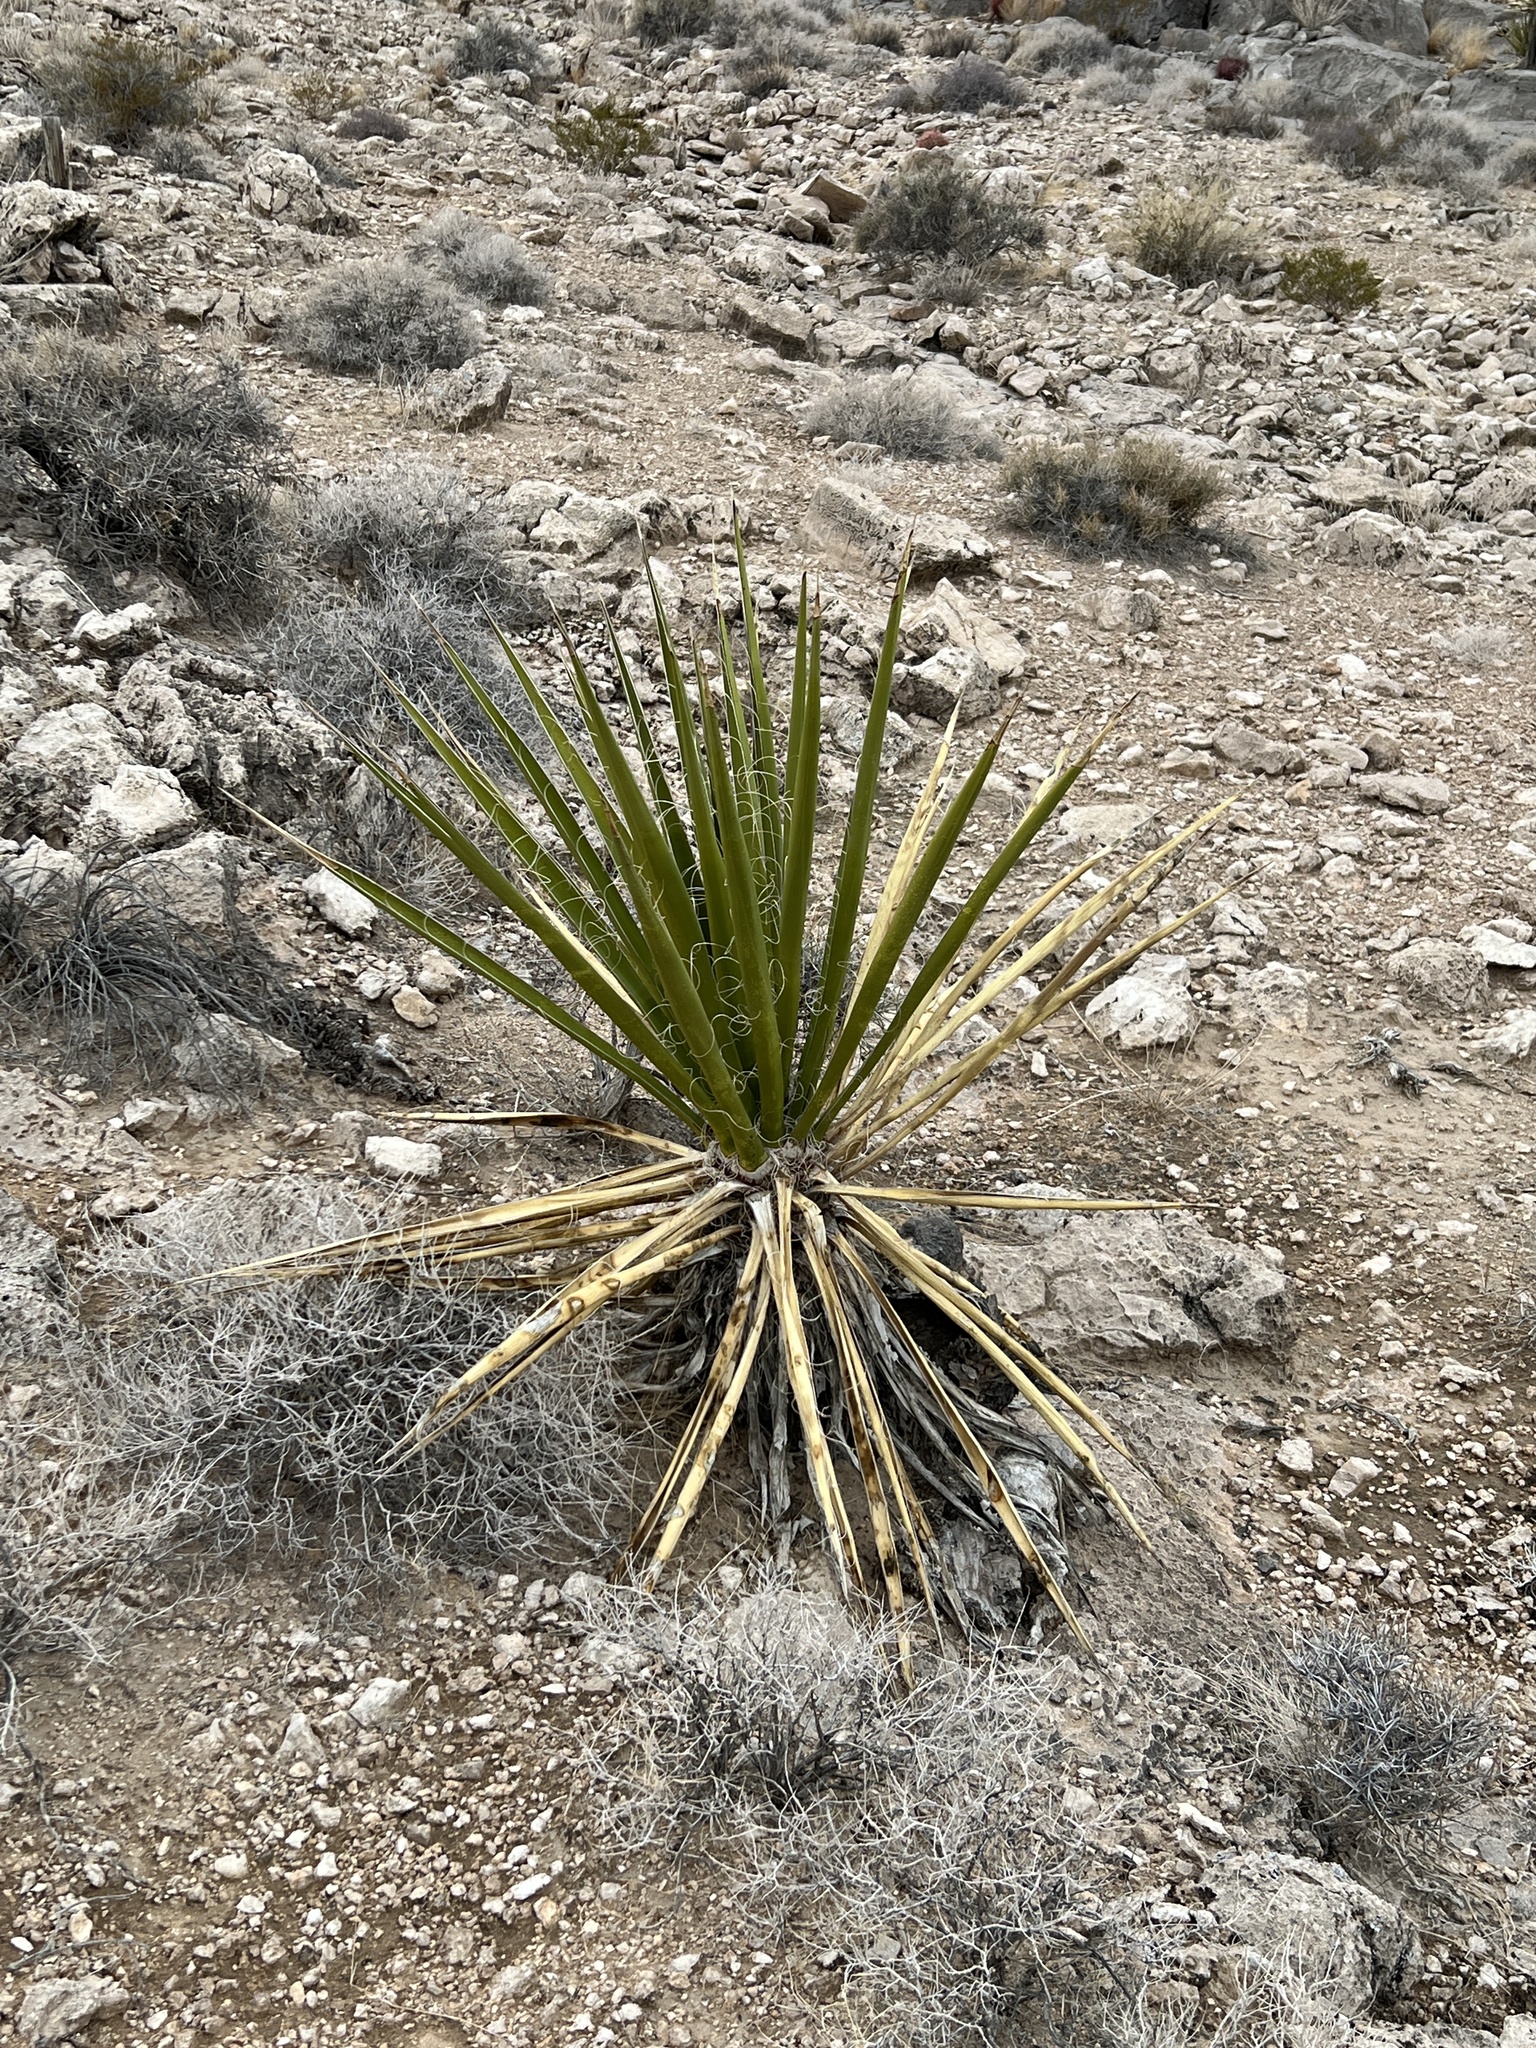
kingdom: Plantae
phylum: Tracheophyta
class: Liliopsida
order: Asparagales
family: Asparagaceae
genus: Yucca
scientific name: Yucca schidigera
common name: Mojave yucca
